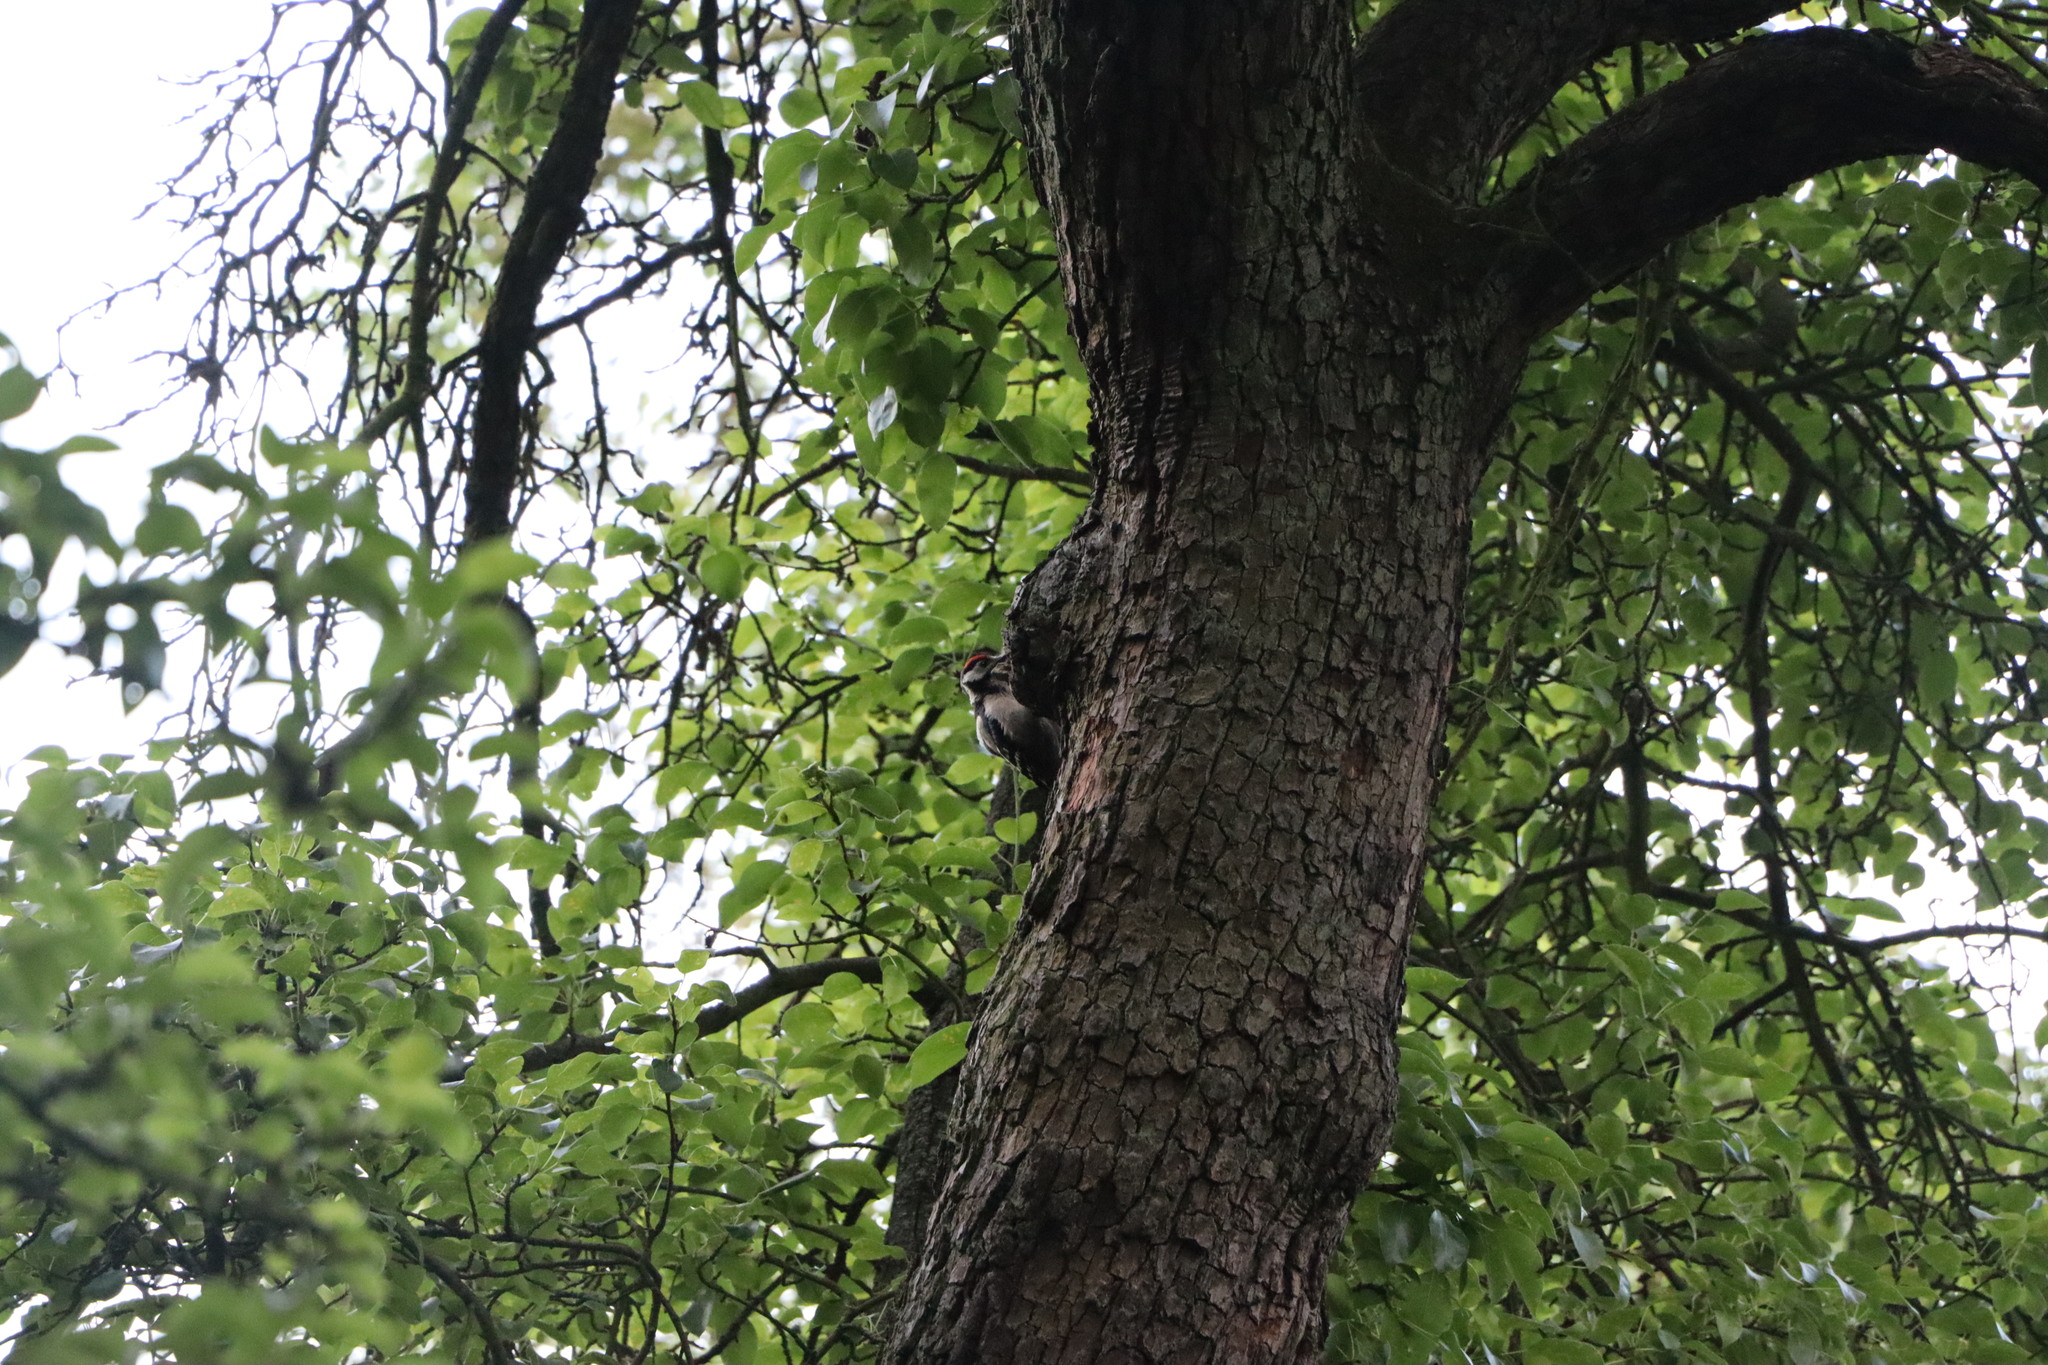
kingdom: Animalia
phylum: Chordata
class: Aves
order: Piciformes
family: Picidae
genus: Dendrocopos
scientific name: Dendrocopos major
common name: Great spotted woodpecker
